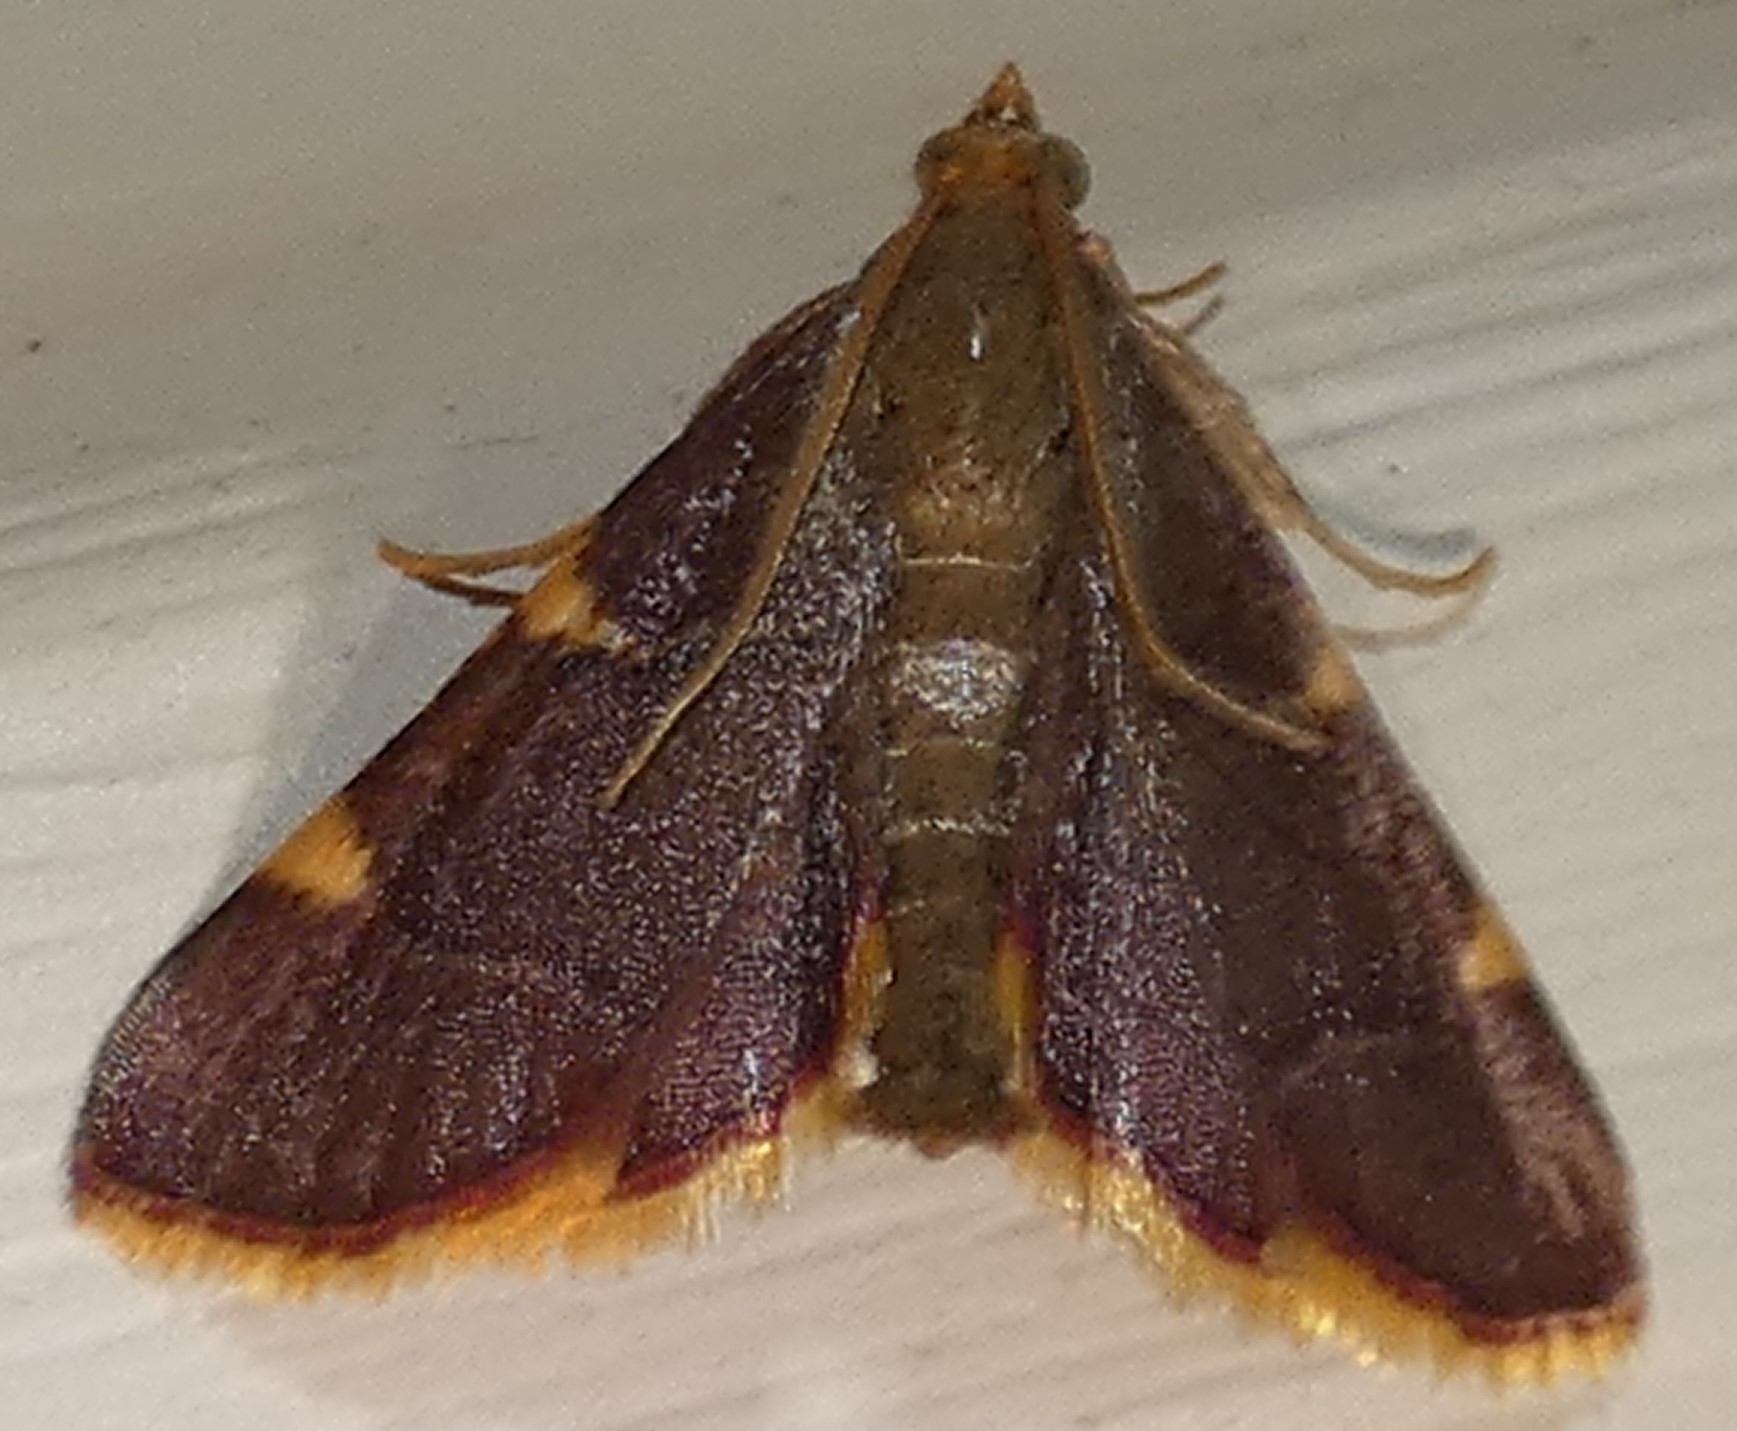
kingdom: Animalia
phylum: Arthropoda
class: Insecta
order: Lepidoptera
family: Pyralidae
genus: Hypsopygia
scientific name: Hypsopygia olinalis
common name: Yellow-fringed dolichomia moth
